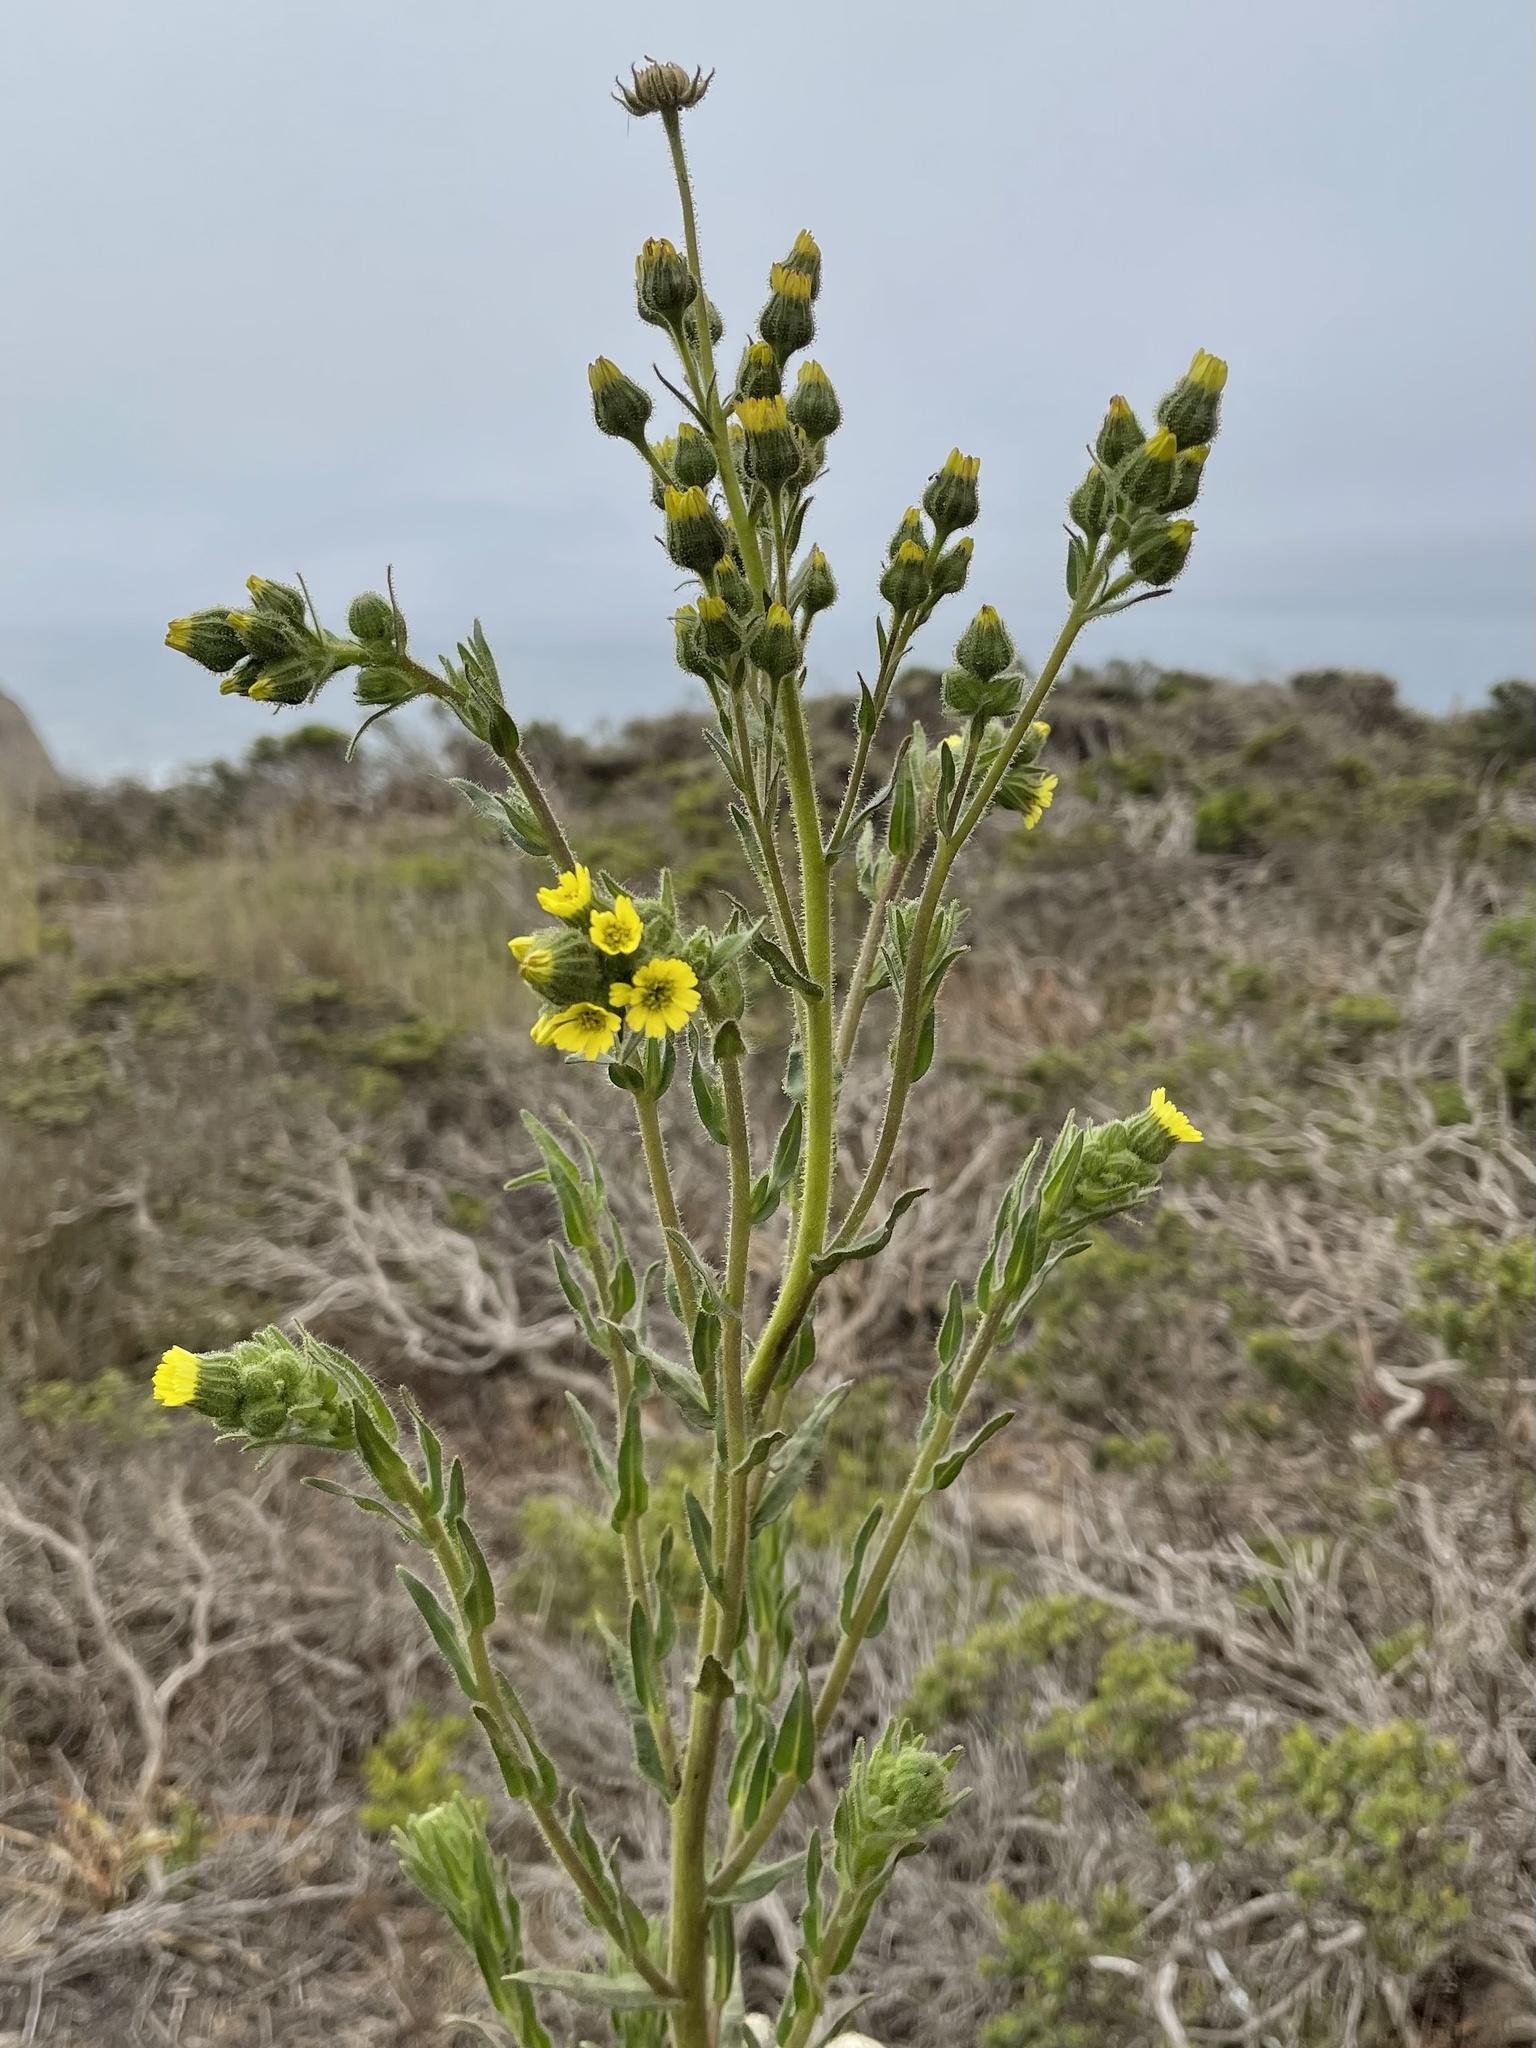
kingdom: Plantae
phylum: Tracheophyta
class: Magnoliopsida
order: Asterales
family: Asteraceae
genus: Madia
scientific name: Madia sativa
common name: Coast tarweed
